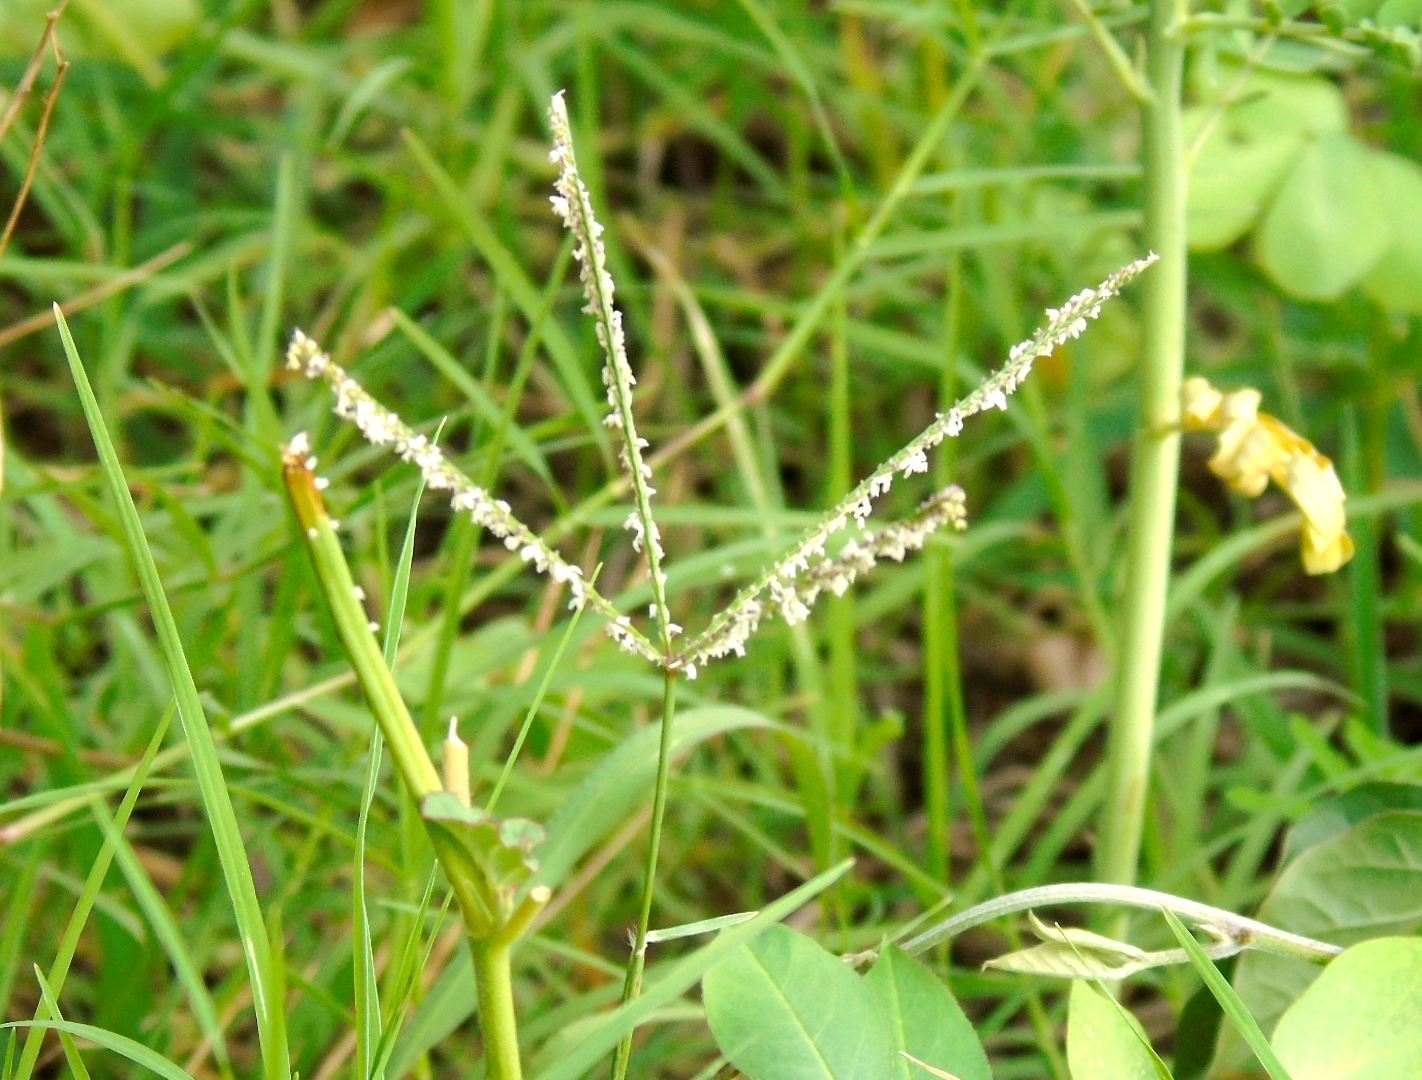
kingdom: Plantae
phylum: Tracheophyta
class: Liliopsida
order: Poales
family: Poaceae
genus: Cynodon
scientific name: Cynodon dactylon
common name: Bermuda grass
